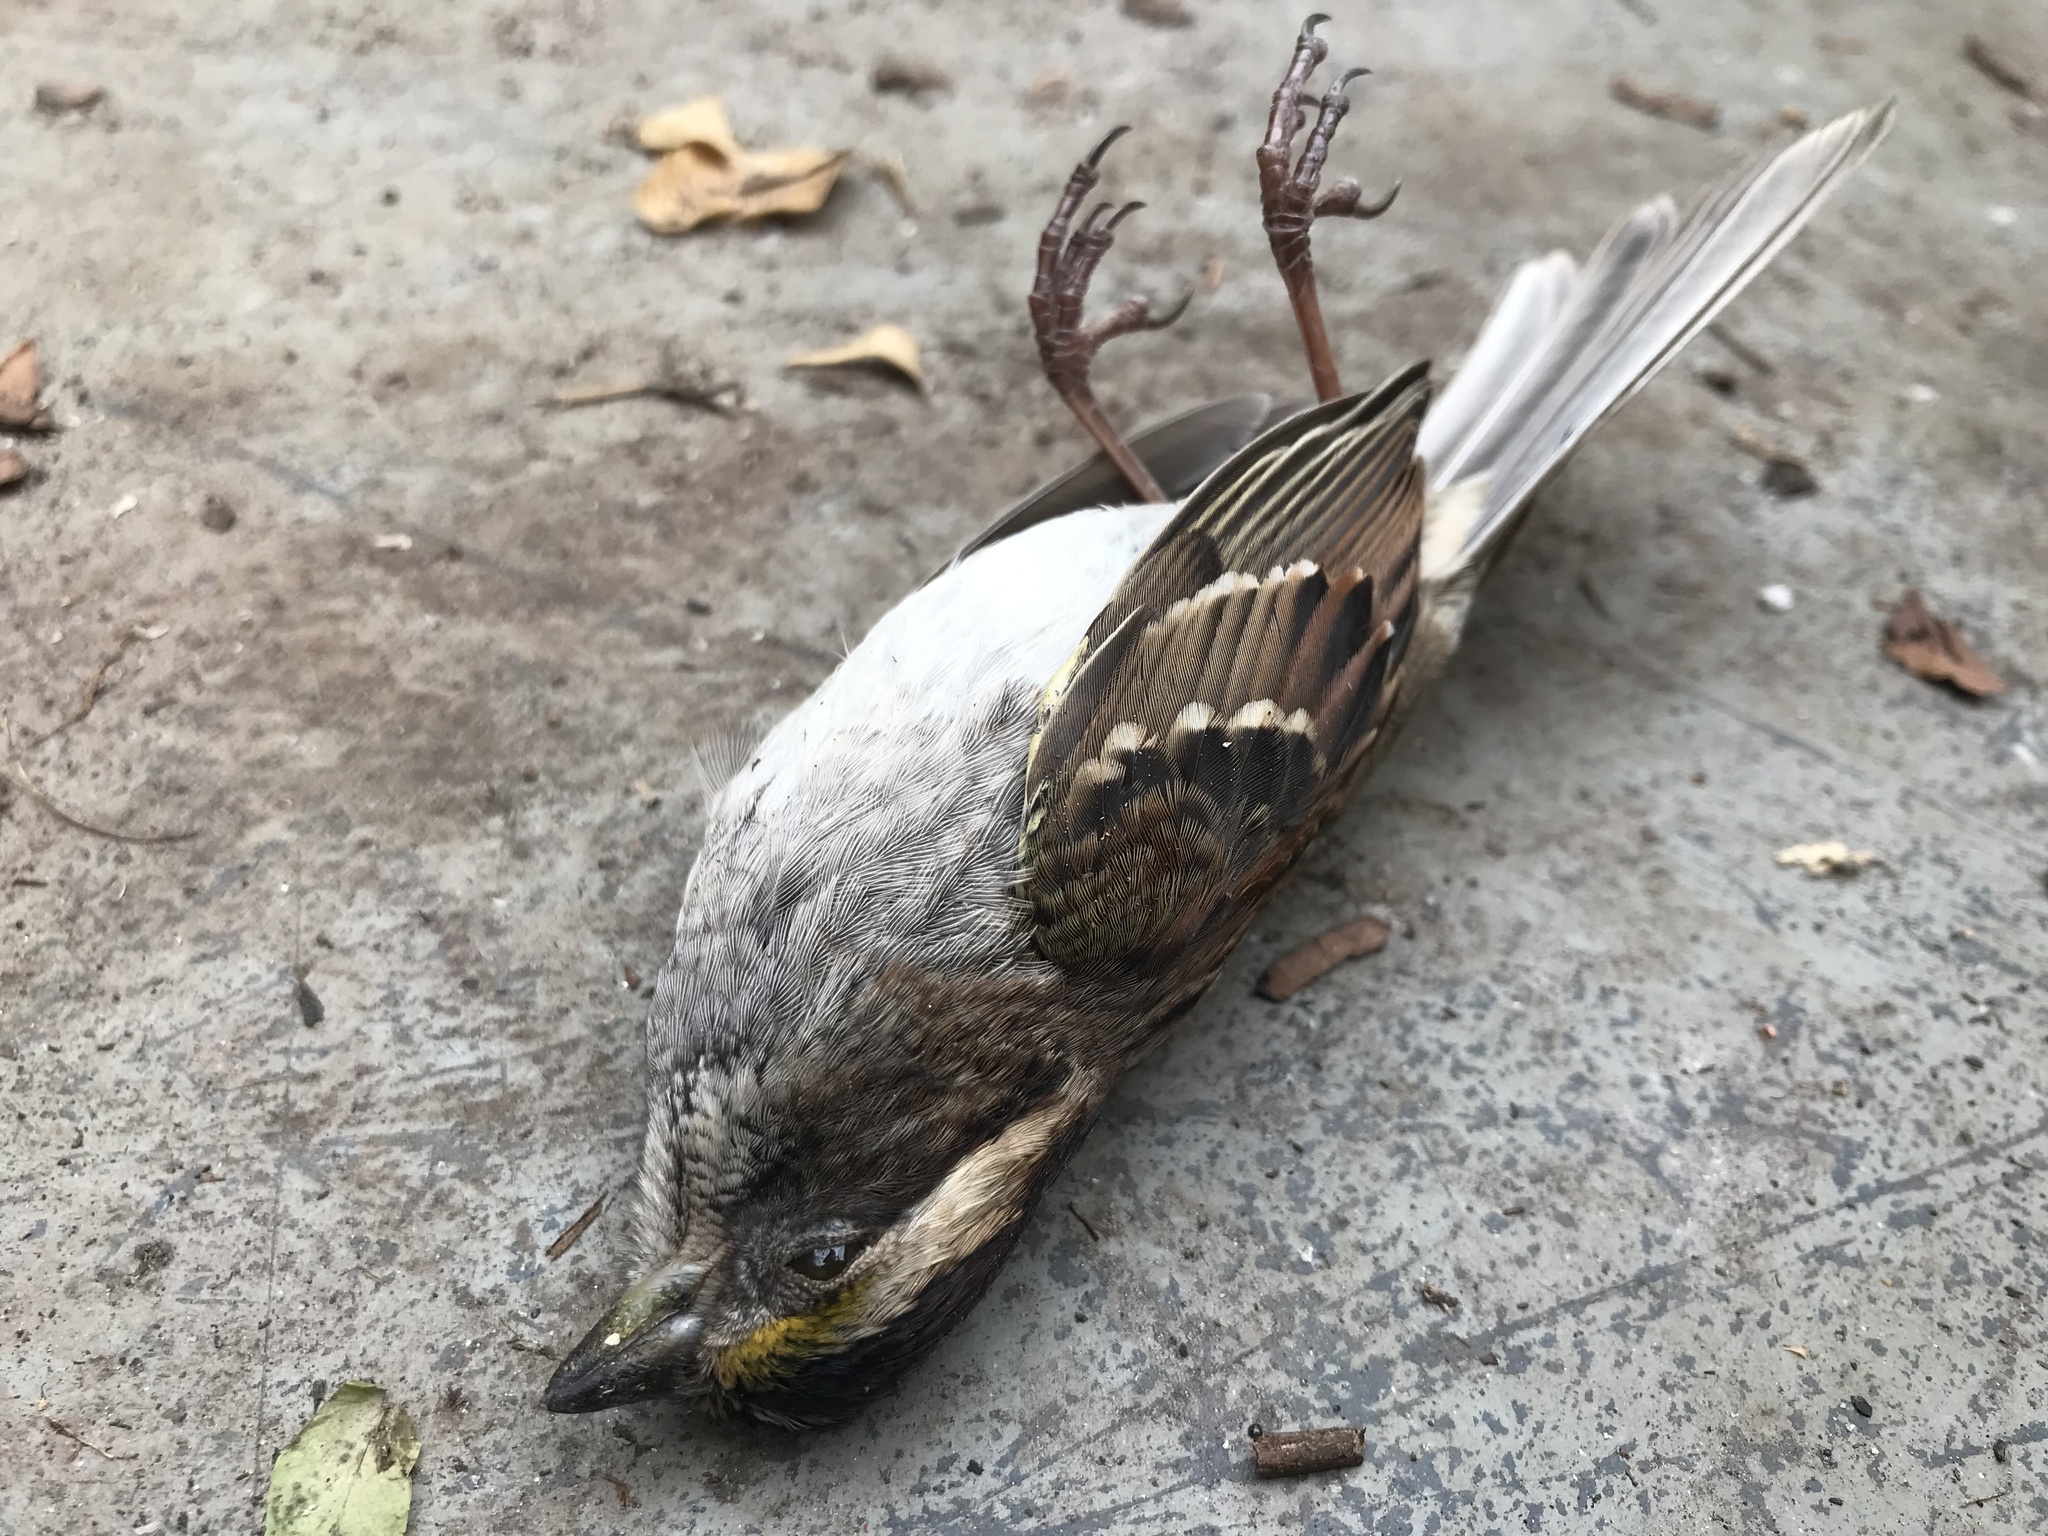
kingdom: Animalia
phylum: Chordata
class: Aves
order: Passeriformes
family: Passerellidae
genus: Zonotrichia
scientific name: Zonotrichia albicollis
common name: White-throated sparrow
